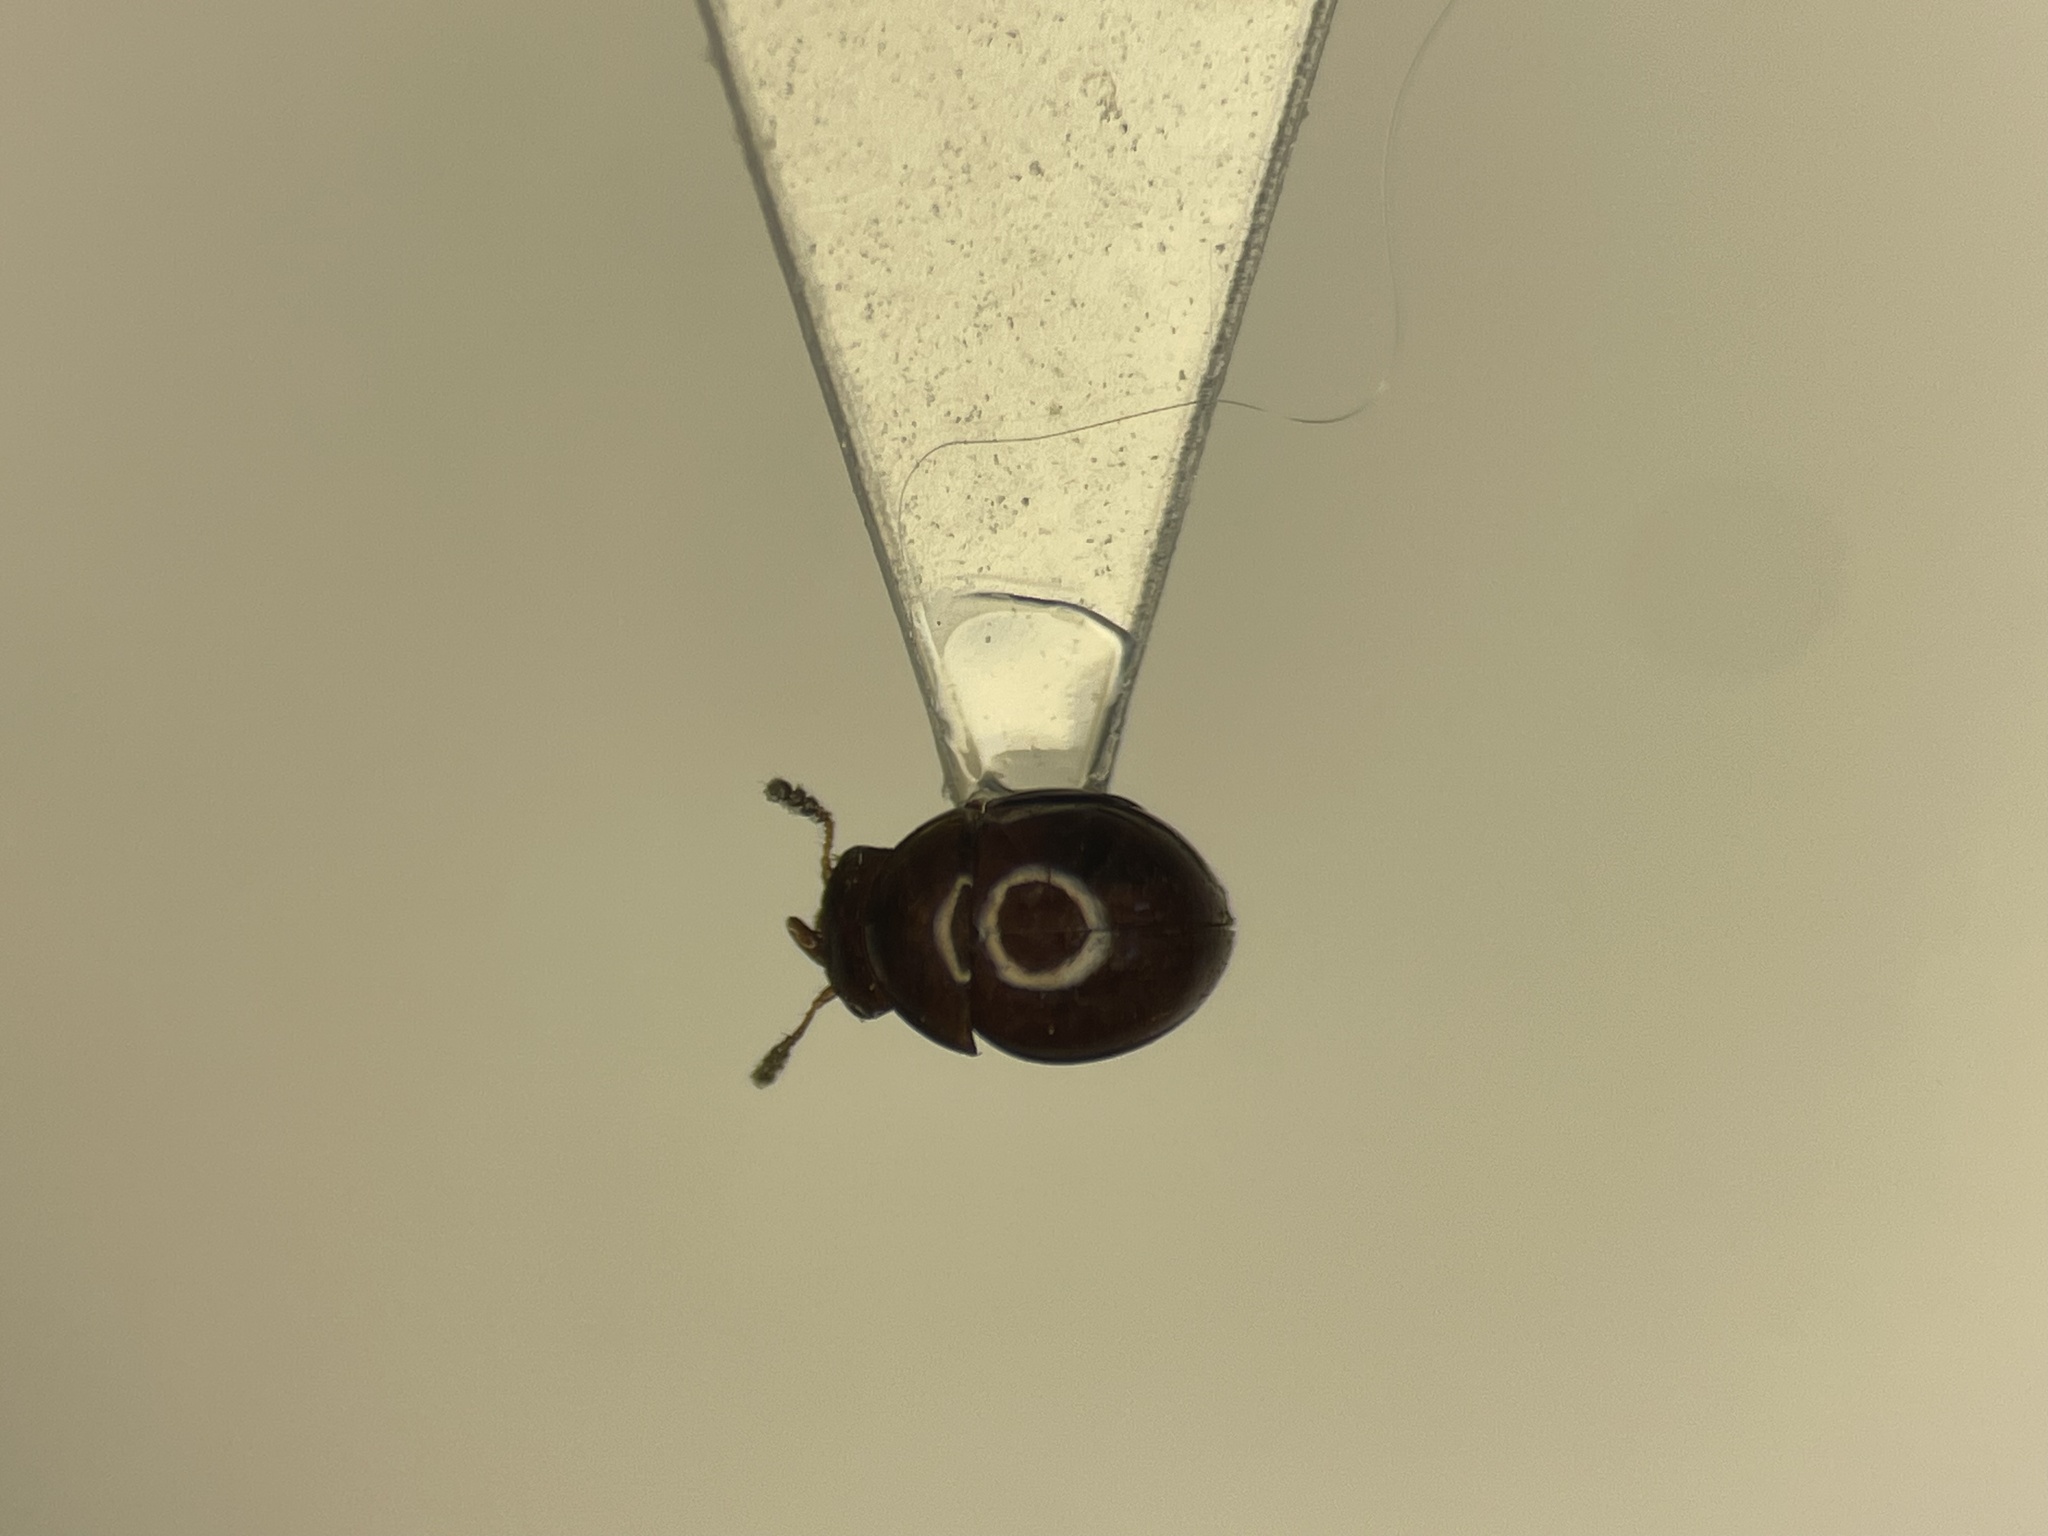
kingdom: Animalia
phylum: Arthropoda
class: Insecta
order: Coleoptera
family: Leiodidae
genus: Agathidium
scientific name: Agathidium aristerium
